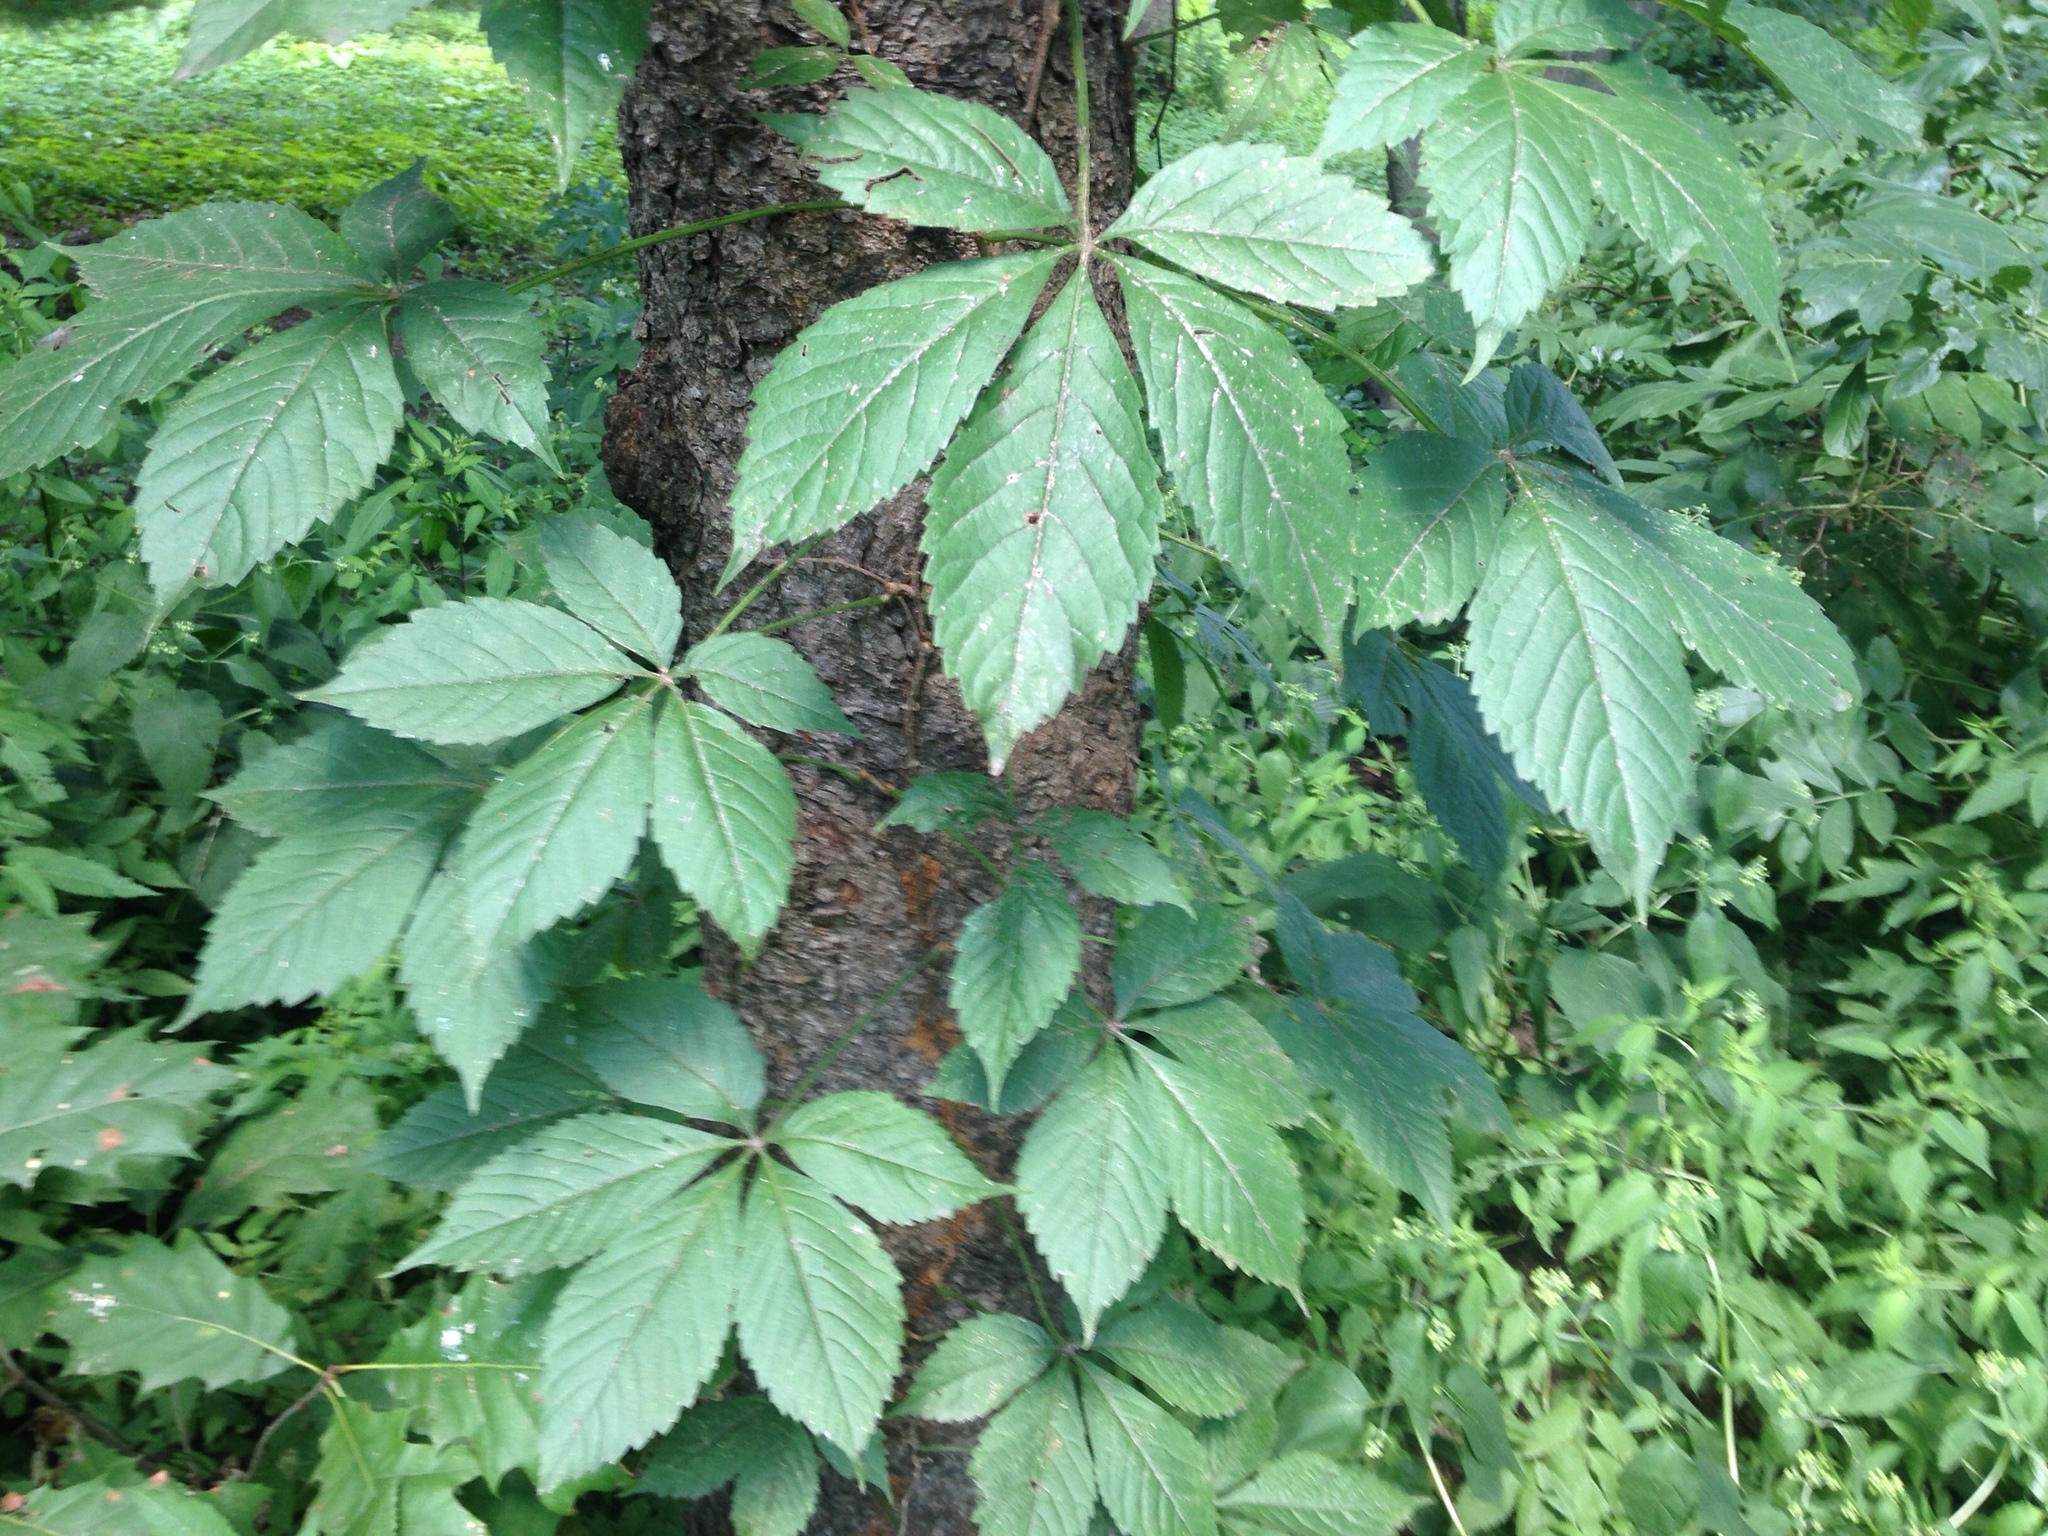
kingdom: Plantae
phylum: Tracheophyta
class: Magnoliopsida
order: Vitales
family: Vitaceae
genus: Parthenocissus
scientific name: Parthenocissus quinquefolia
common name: Virginia-creeper
